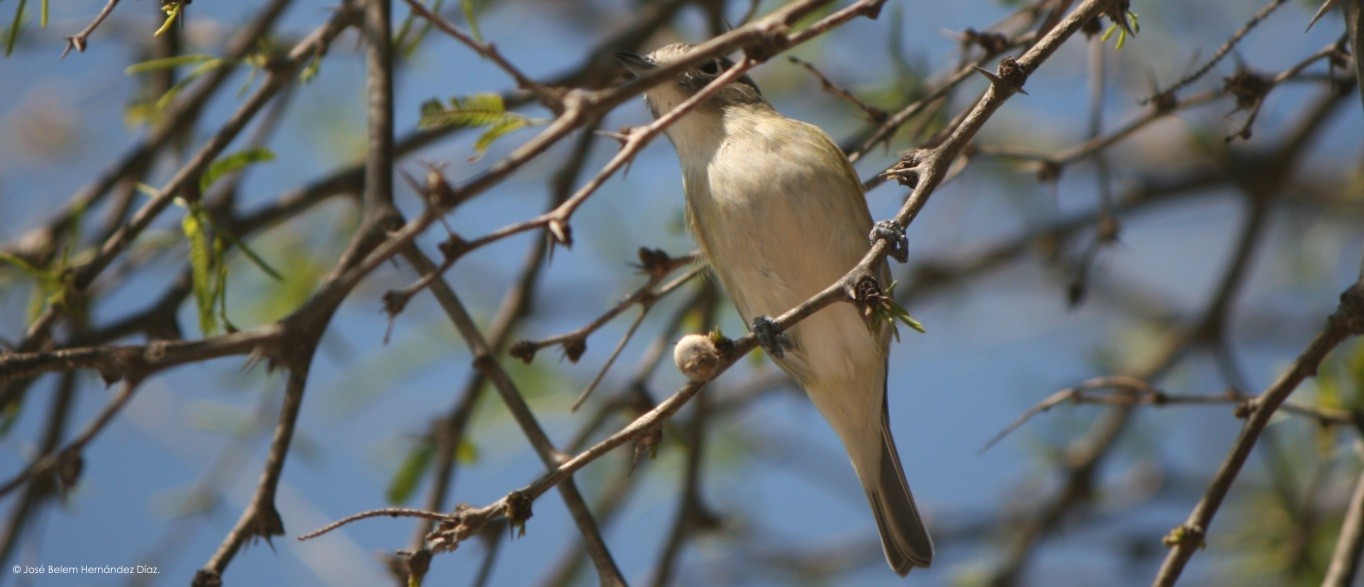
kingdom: Animalia
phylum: Chordata
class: Aves
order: Passeriformes
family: Vireonidae
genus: Vireo
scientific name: Vireo cassinii
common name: Cassin's vireo
